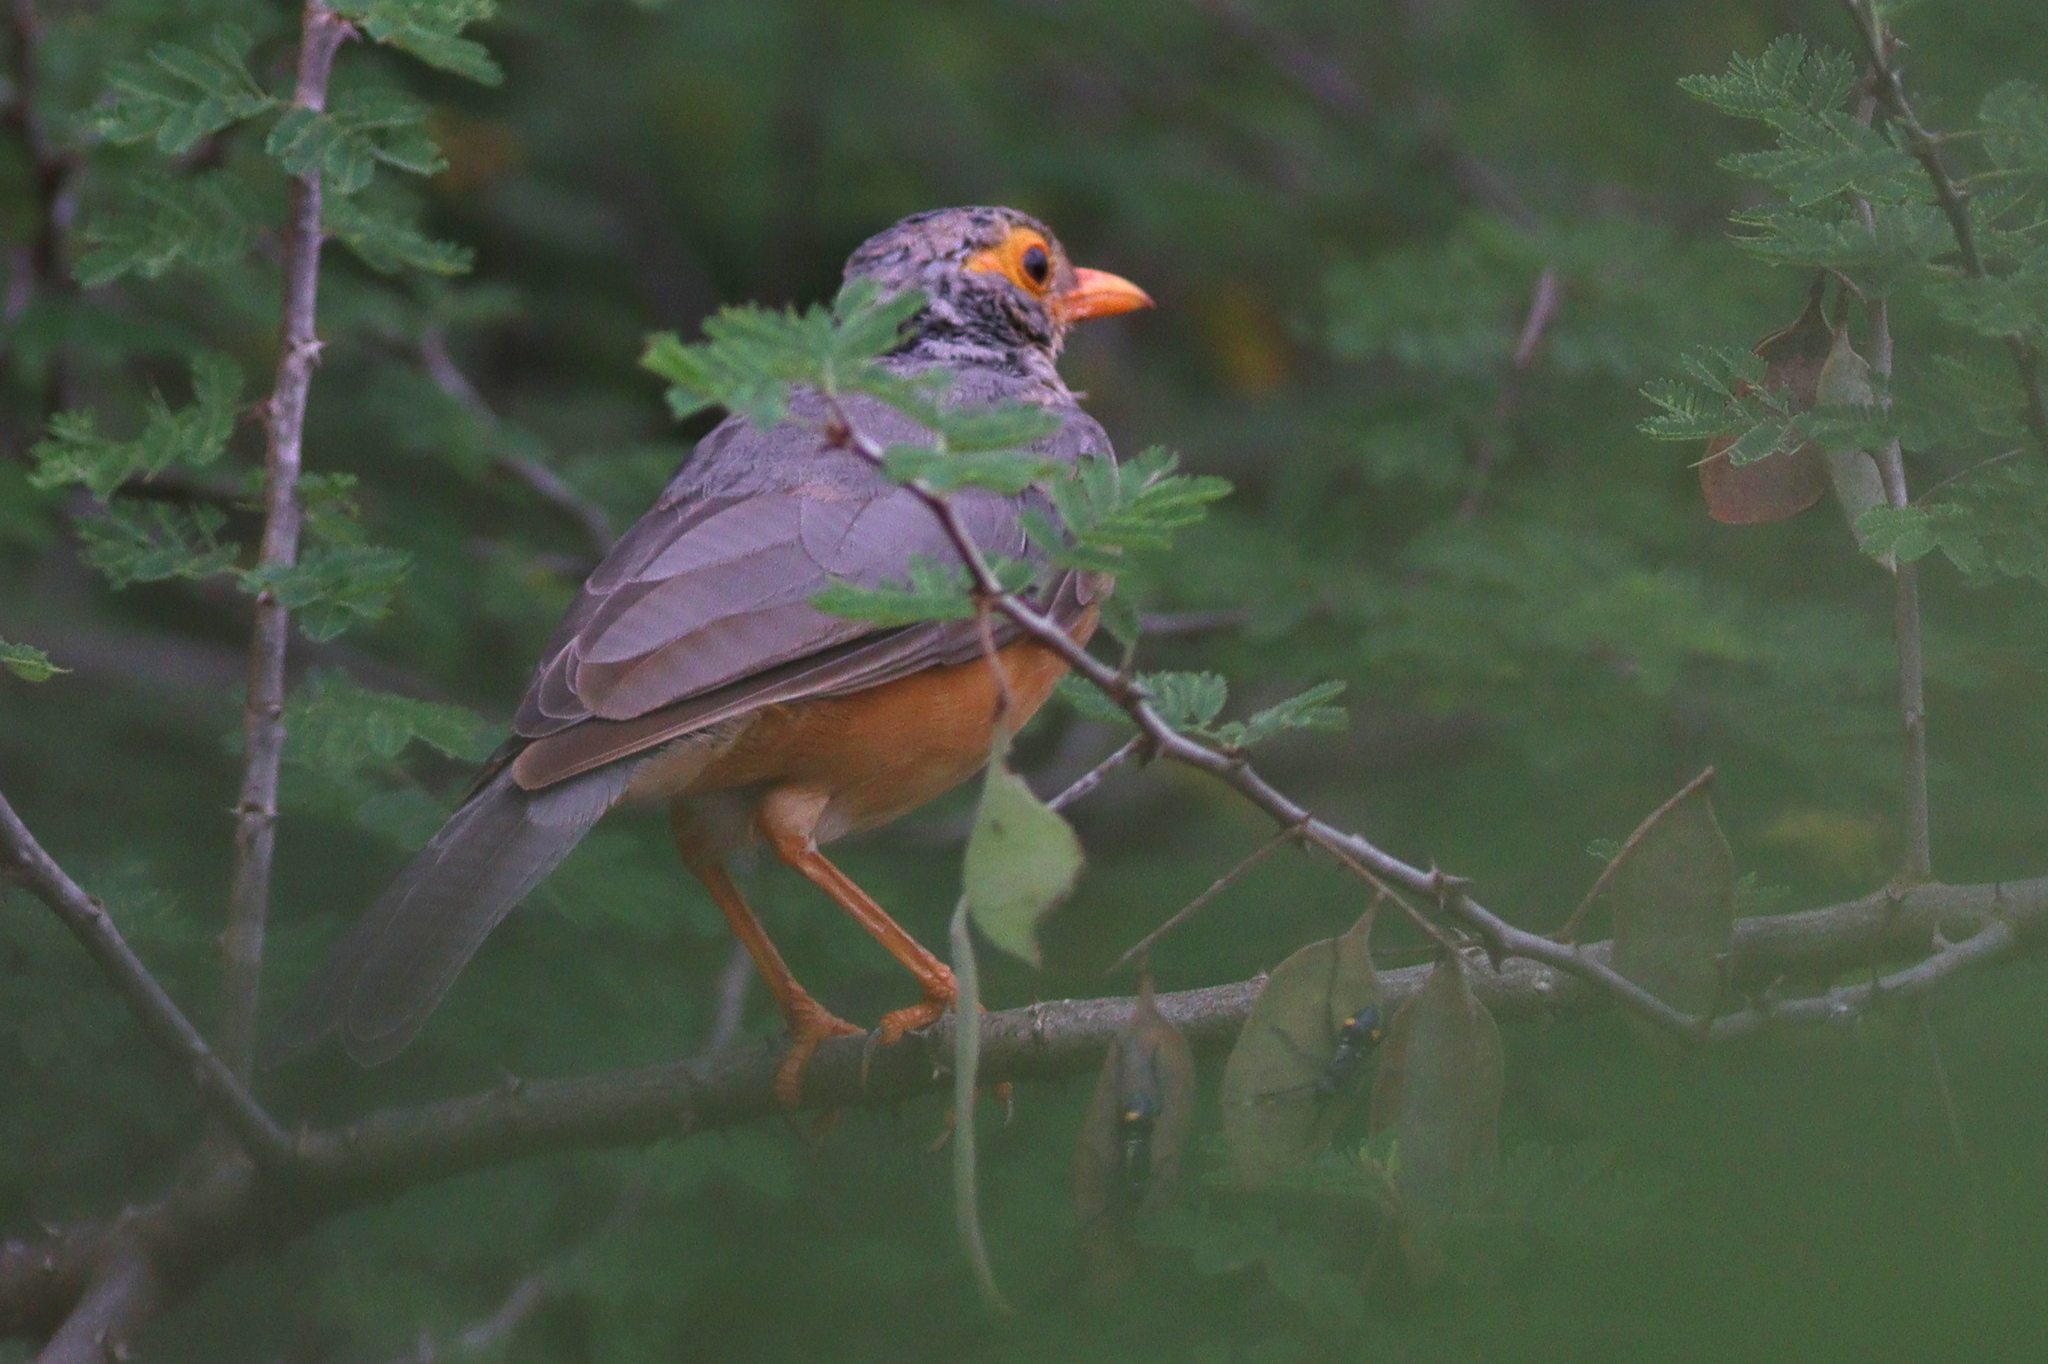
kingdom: Animalia
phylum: Chordata
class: Aves
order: Passeriformes
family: Turdidae
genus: Turdus
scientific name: Turdus tephronotus
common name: African bare-eyed thrush
